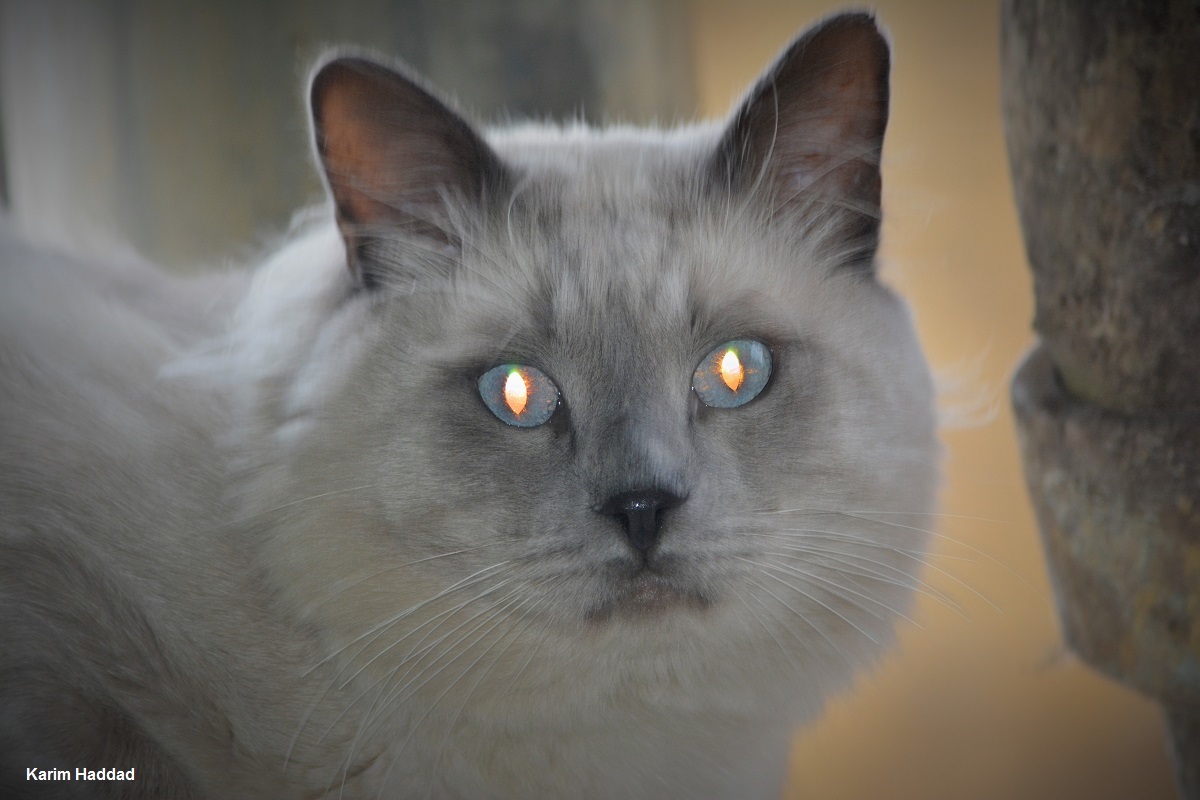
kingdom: Animalia
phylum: Chordata
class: Mammalia
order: Carnivora
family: Felidae
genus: Felis
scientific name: Felis catus
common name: Domestic cat
